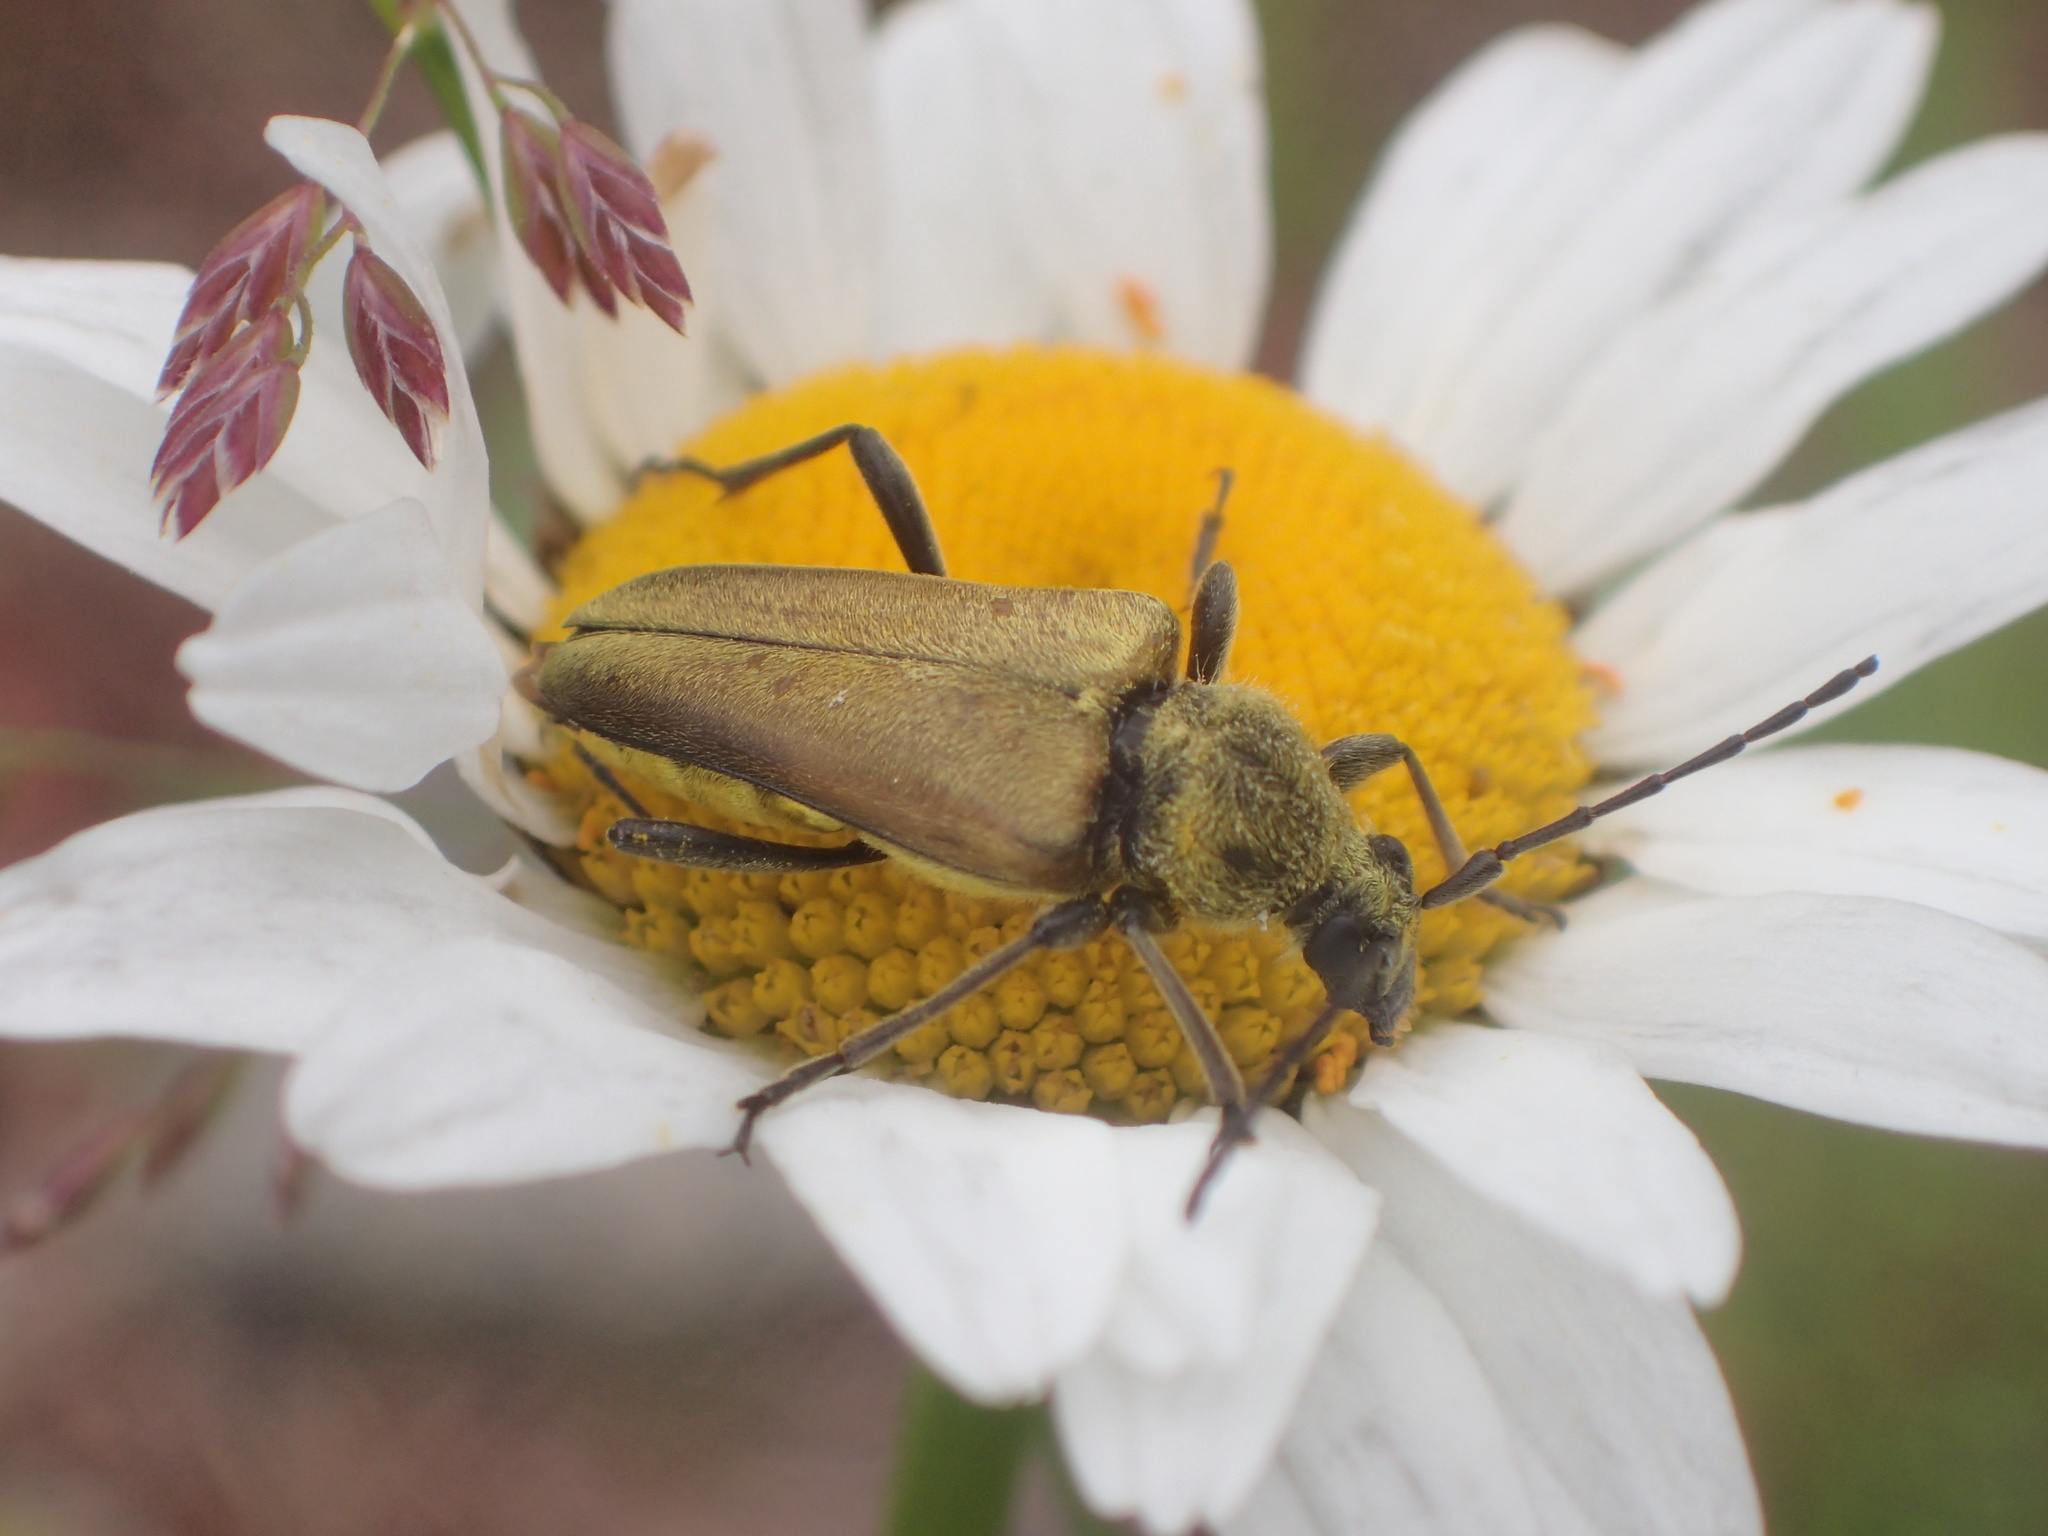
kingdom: Animalia
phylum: Arthropoda
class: Insecta
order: Coleoptera
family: Cerambycidae
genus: Cosmosalia
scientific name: Cosmosalia chrysocoma
